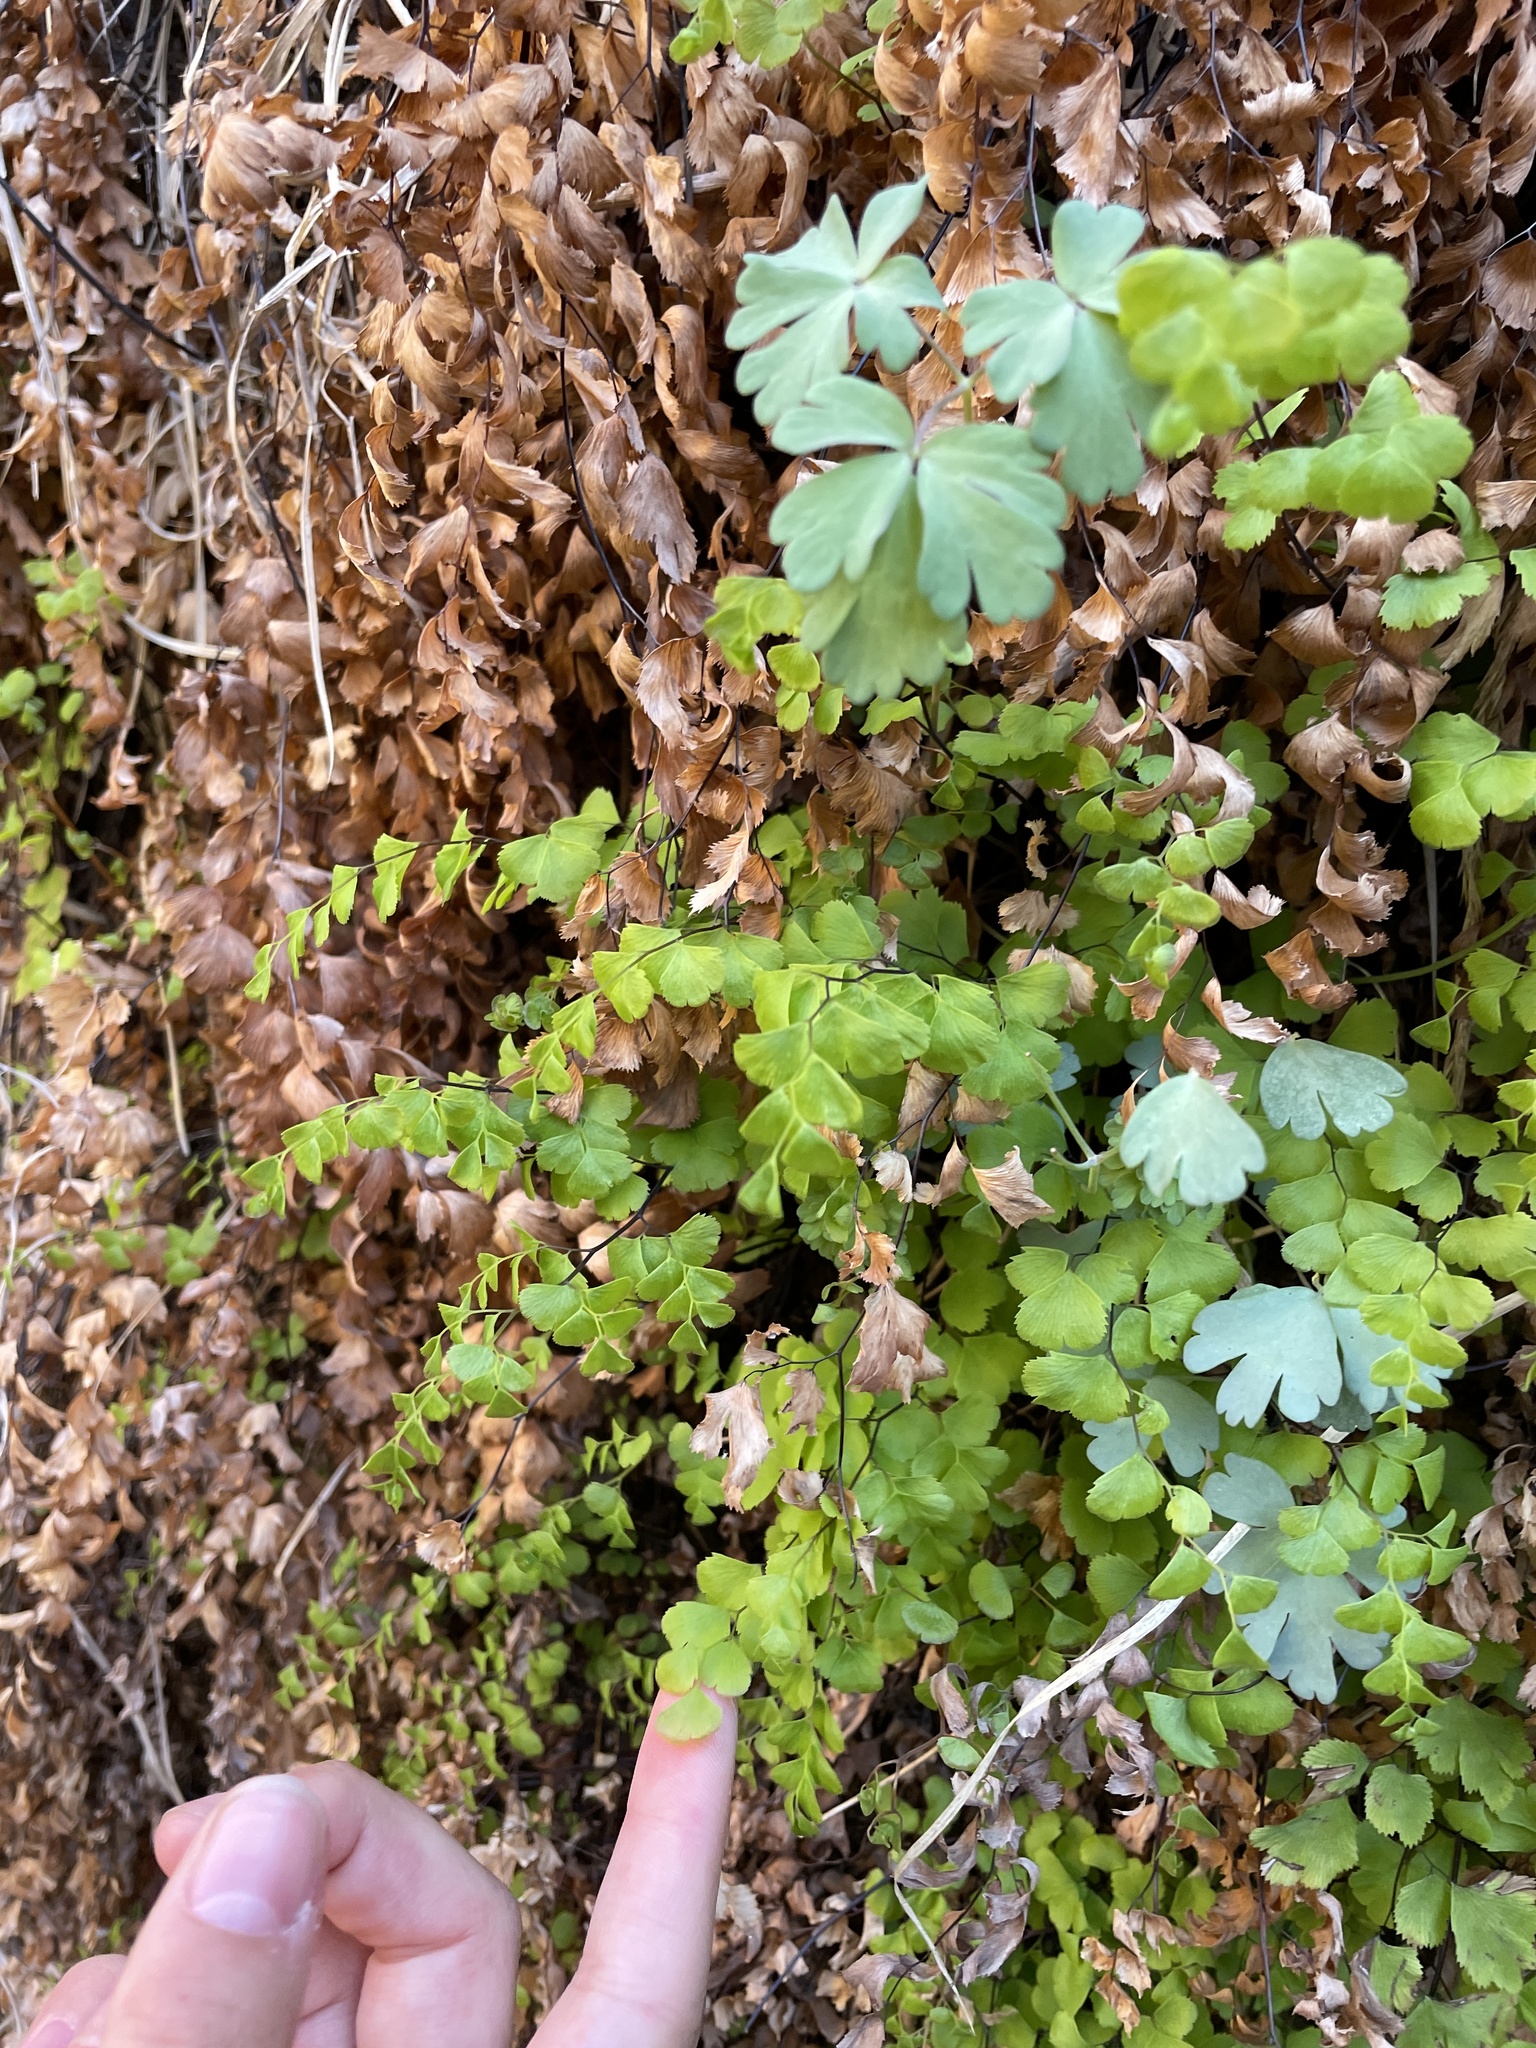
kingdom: Plantae
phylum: Tracheophyta
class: Polypodiopsida
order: Polypodiales
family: Pteridaceae
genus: Adiantum
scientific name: Adiantum capillus-veneris
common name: Maidenhair fern
